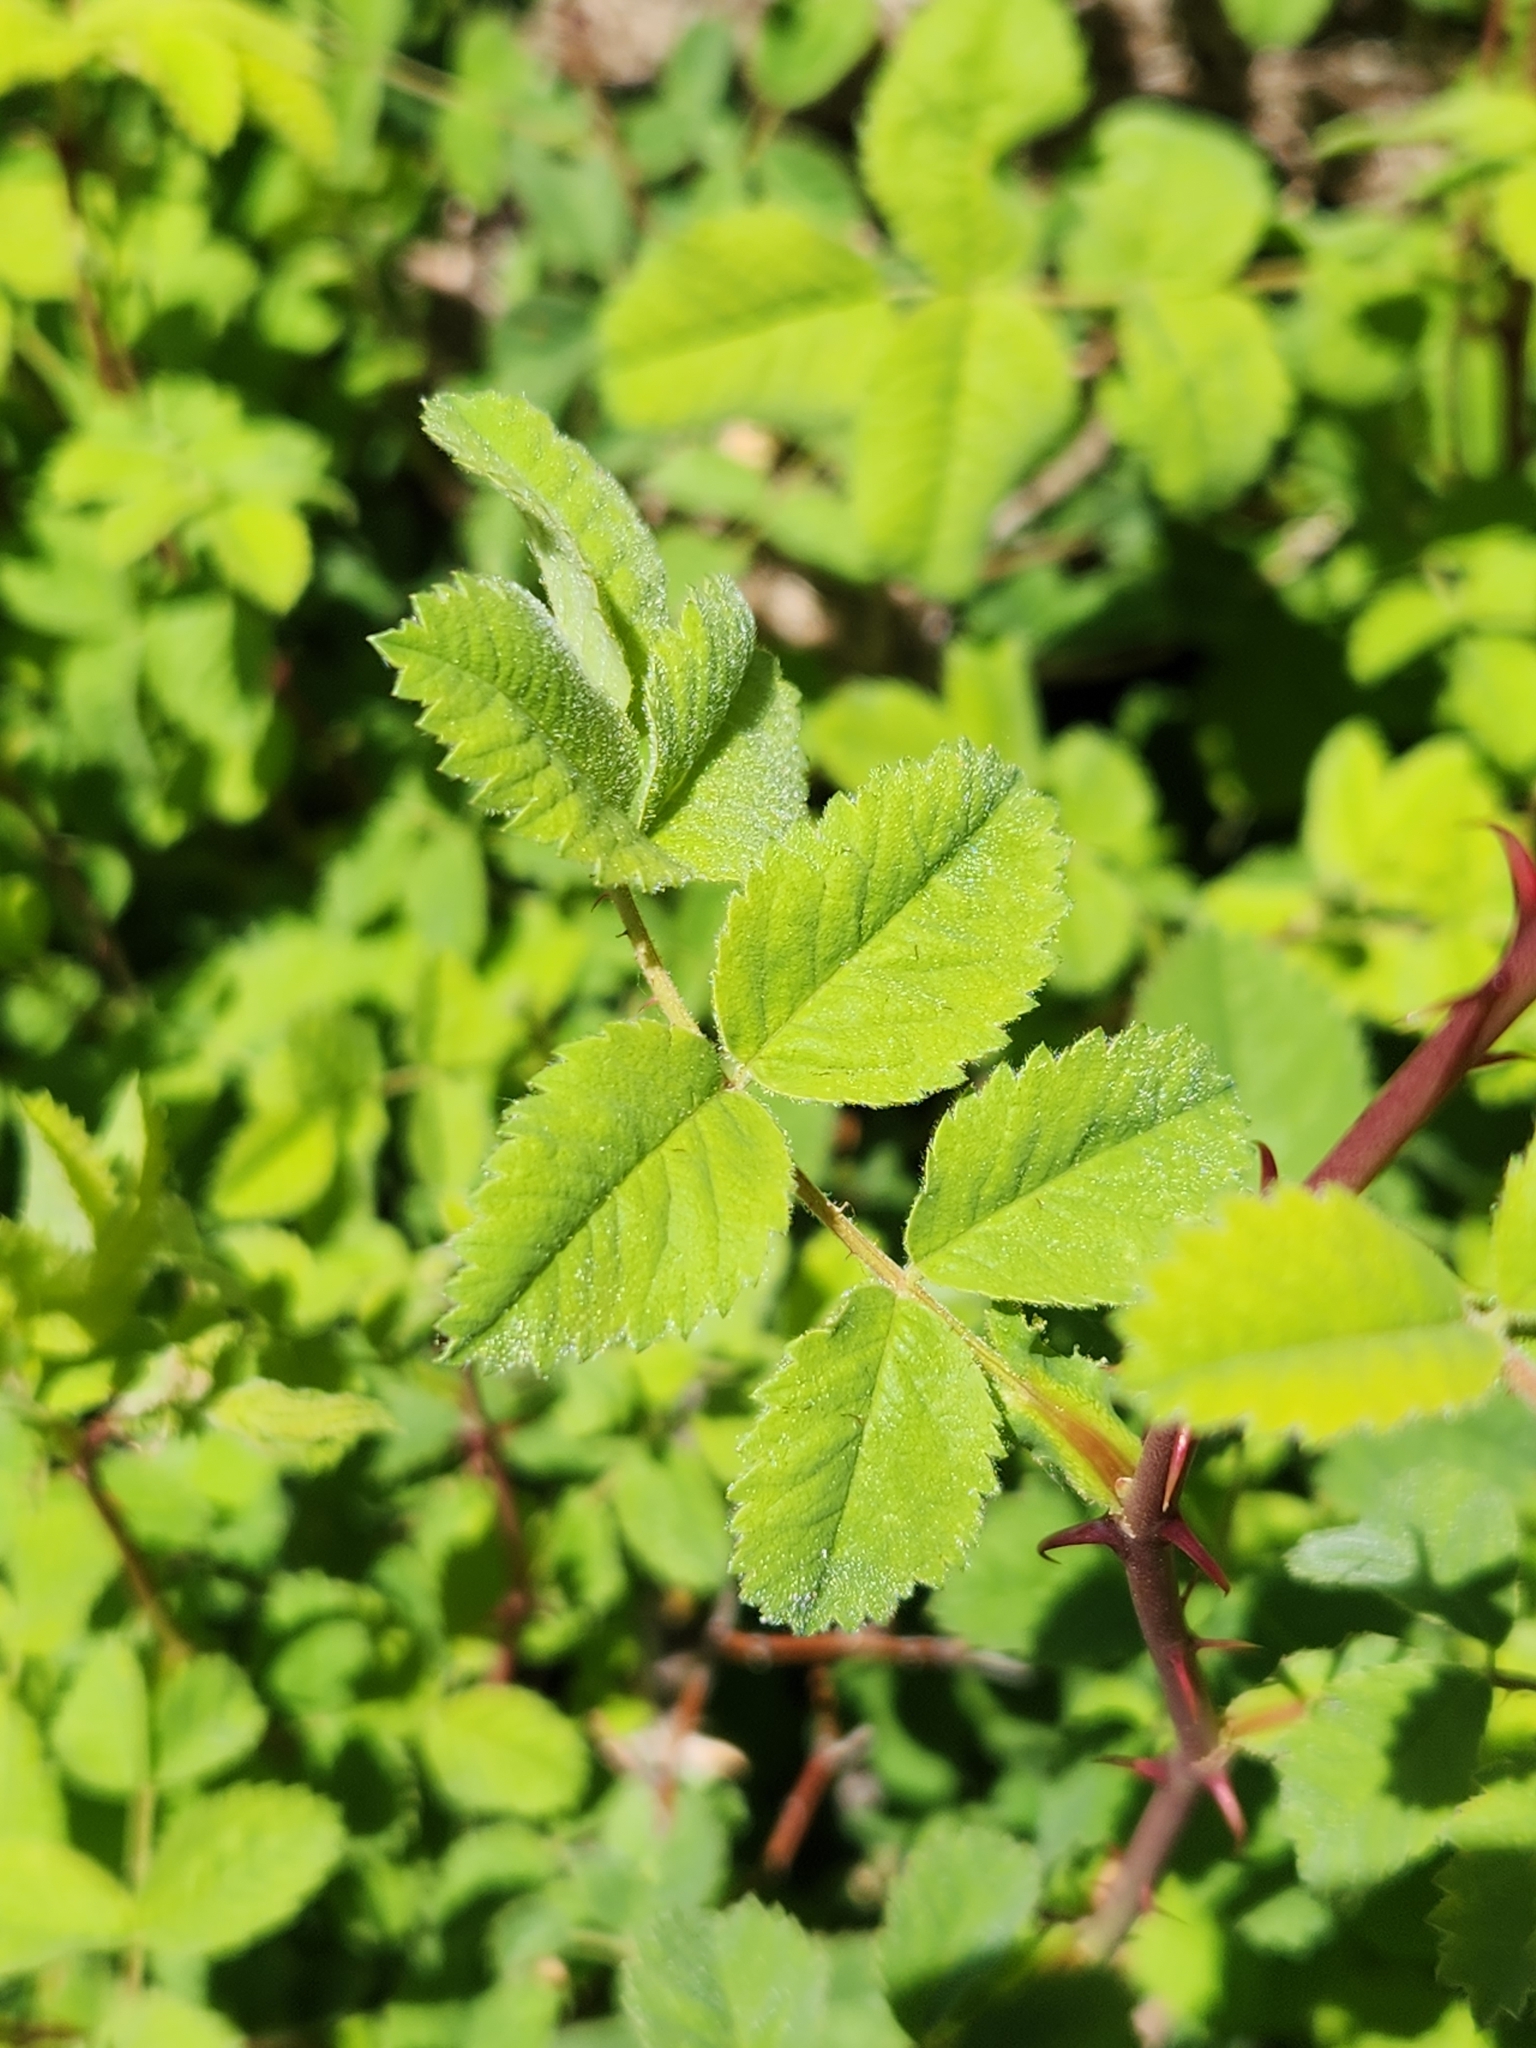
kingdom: Plantae
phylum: Tracheophyta
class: Magnoliopsida
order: Rosales
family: Rosaceae
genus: Rosa
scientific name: Rosa californica
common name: California rose
